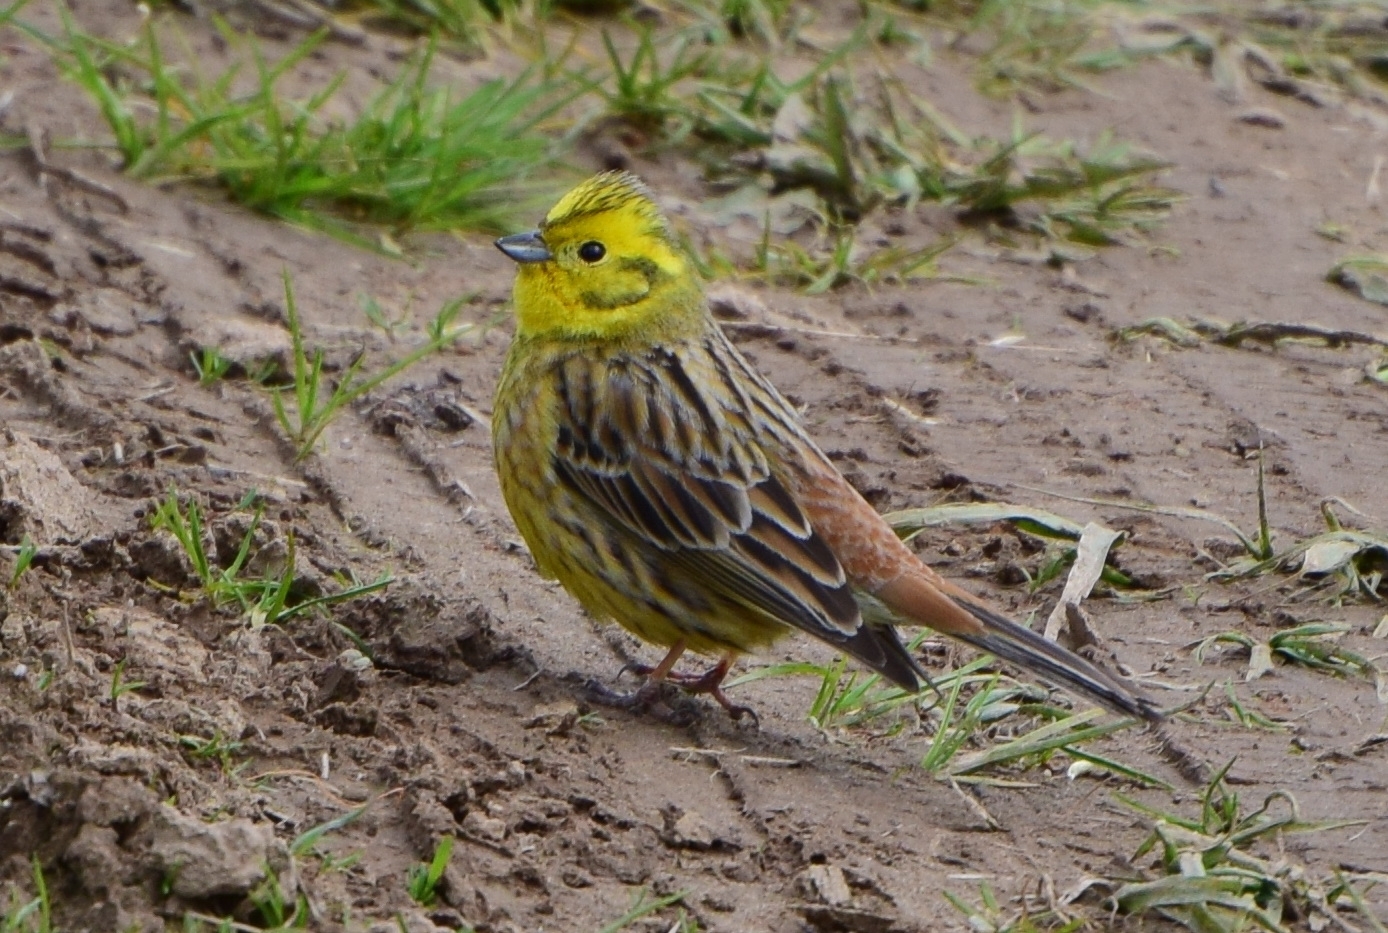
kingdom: Animalia
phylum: Chordata
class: Aves
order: Passeriformes
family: Emberizidae
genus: Emberiza
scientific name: Emberiza citrinella
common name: Yellowhammer
